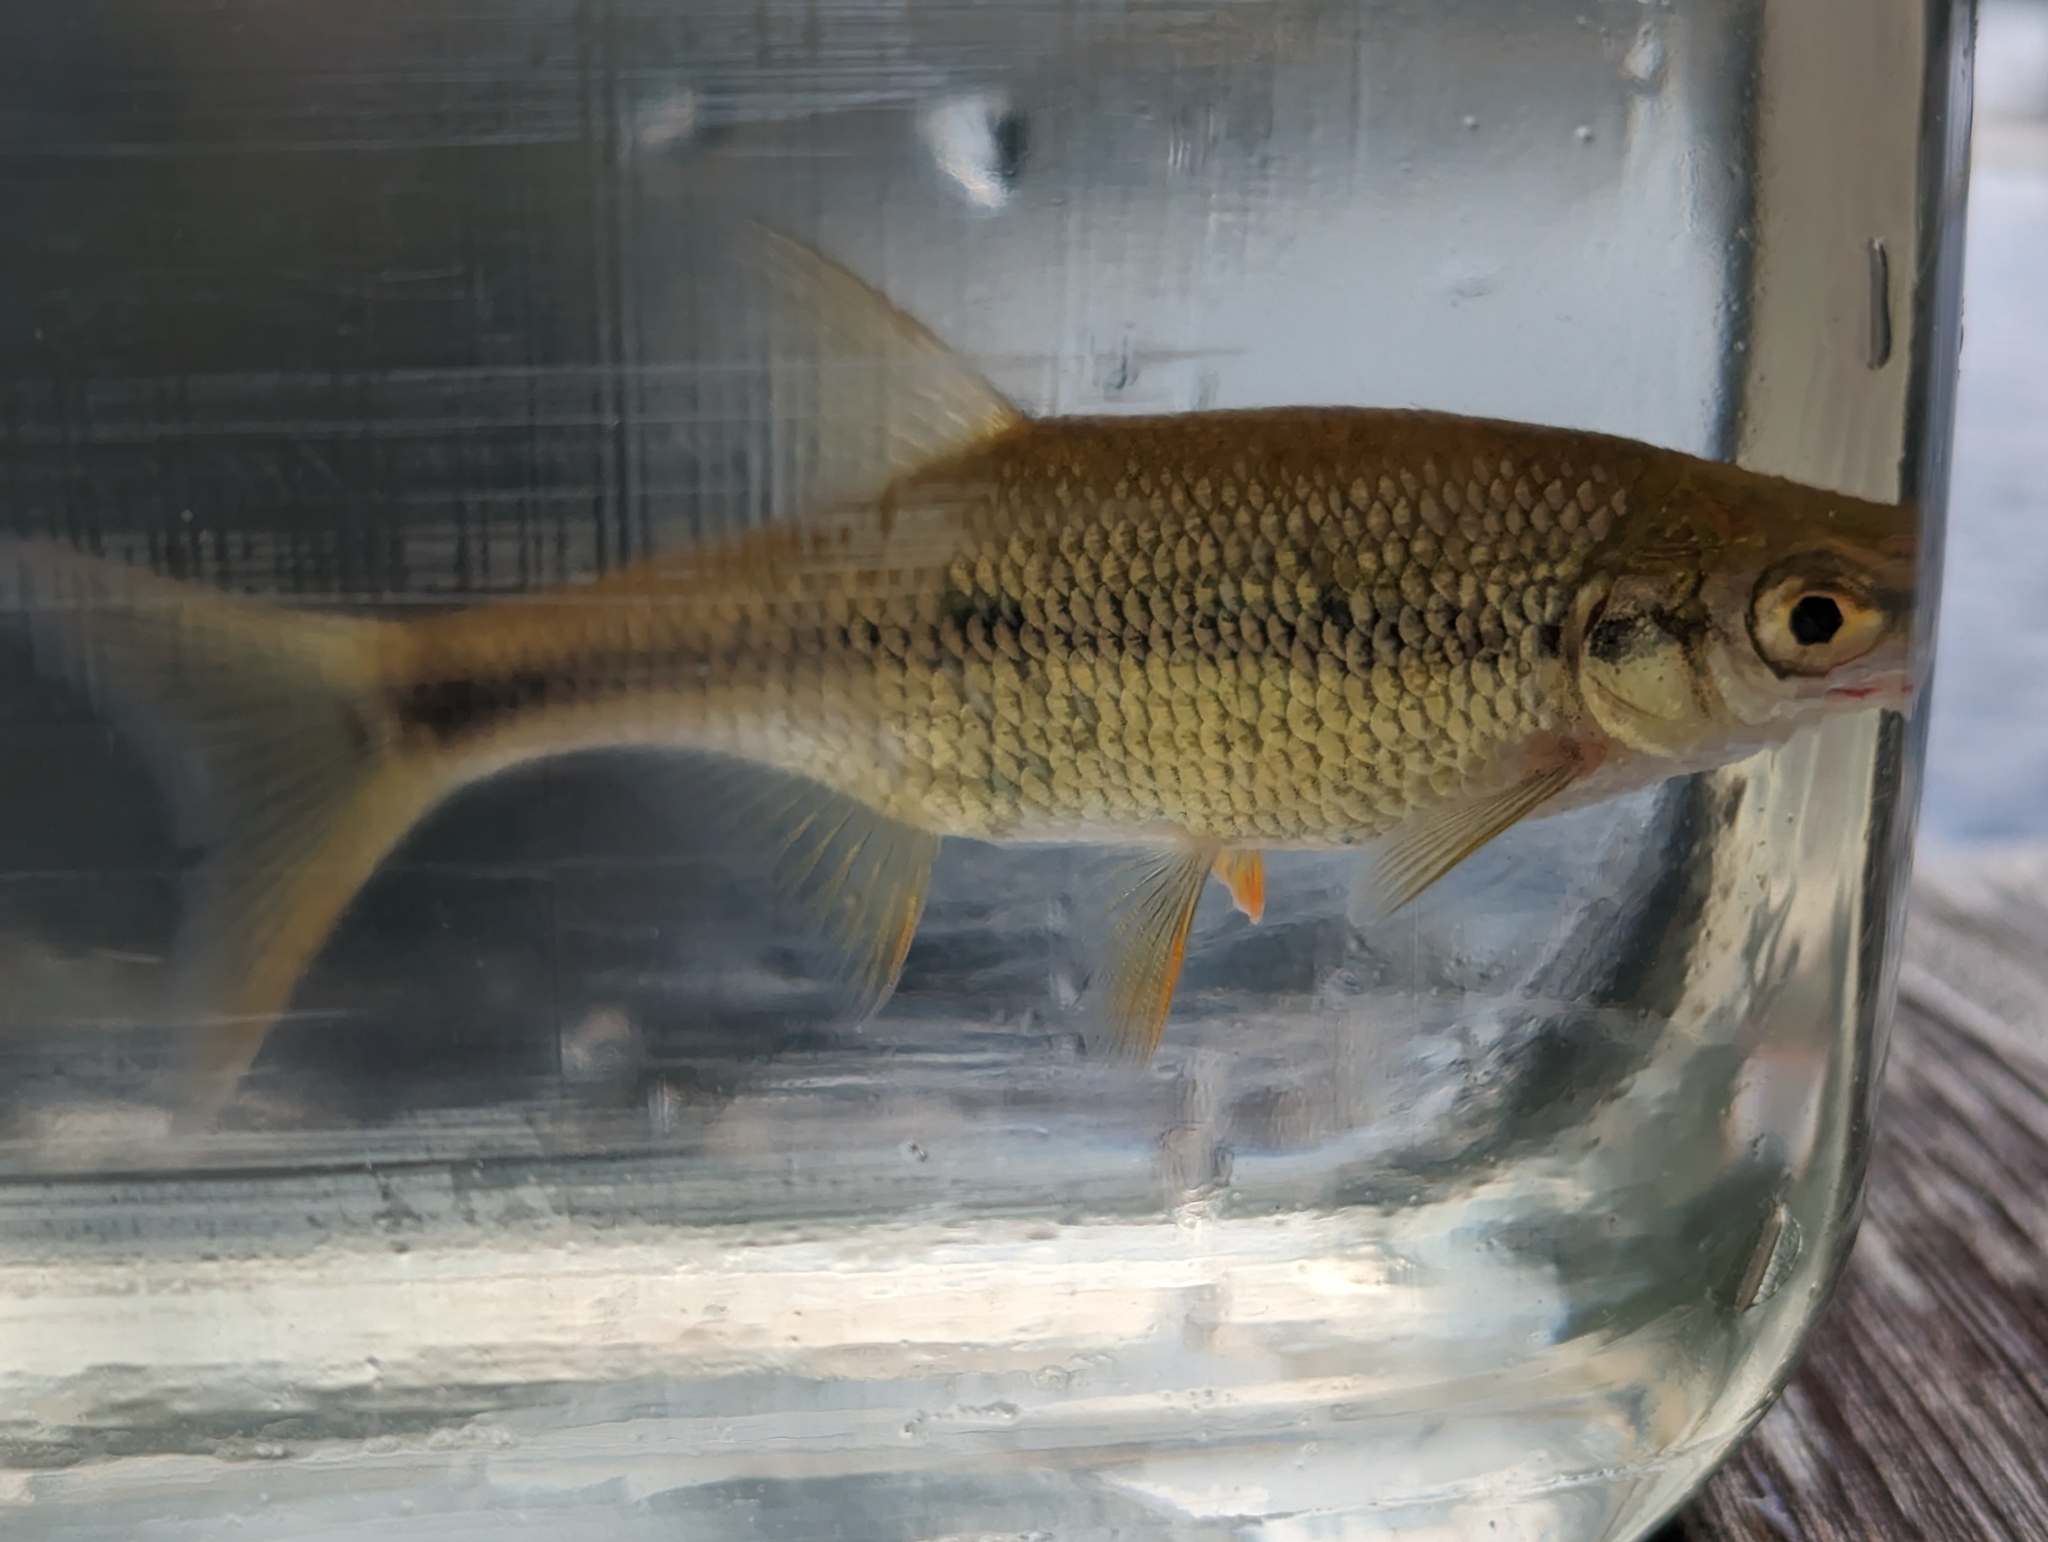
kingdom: Animalia
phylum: Chordata
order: Cypriniformes
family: Cyprinidae
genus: Notemigonus
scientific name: Notemigonus crysoleucas
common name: Golden shiner
